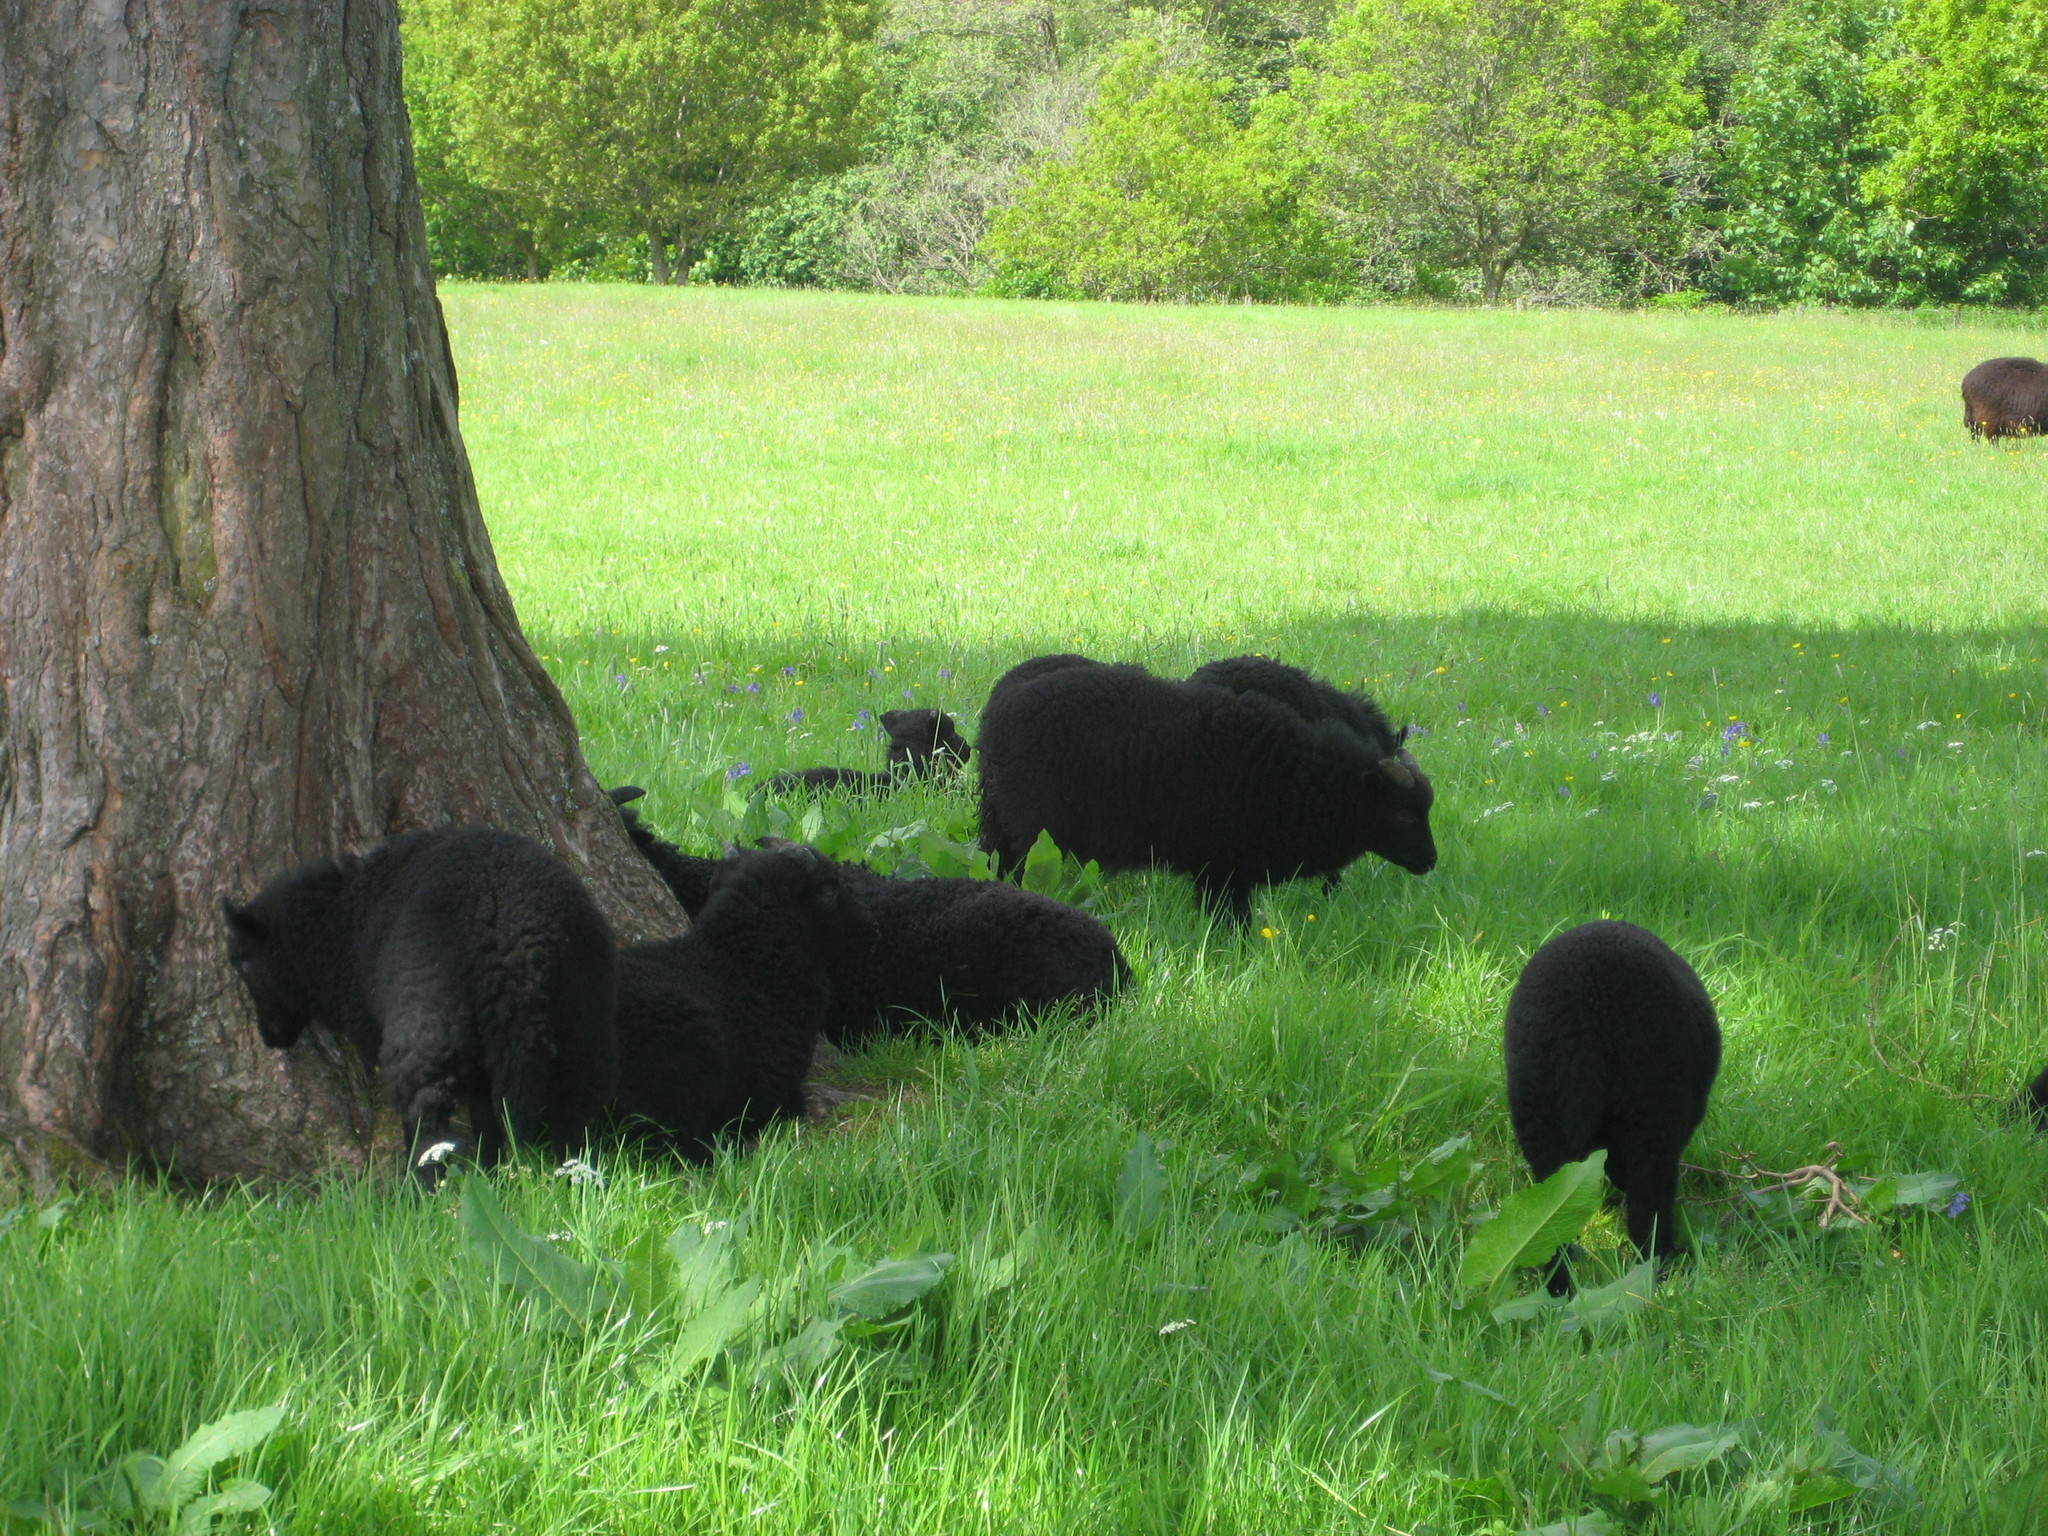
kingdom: Plantae
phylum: Tracheophyta
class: Magnoliopsida
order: Caryophyllales
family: Polygonaceae
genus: Rumex
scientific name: Rumex obtusifolius
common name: Bitter dock
